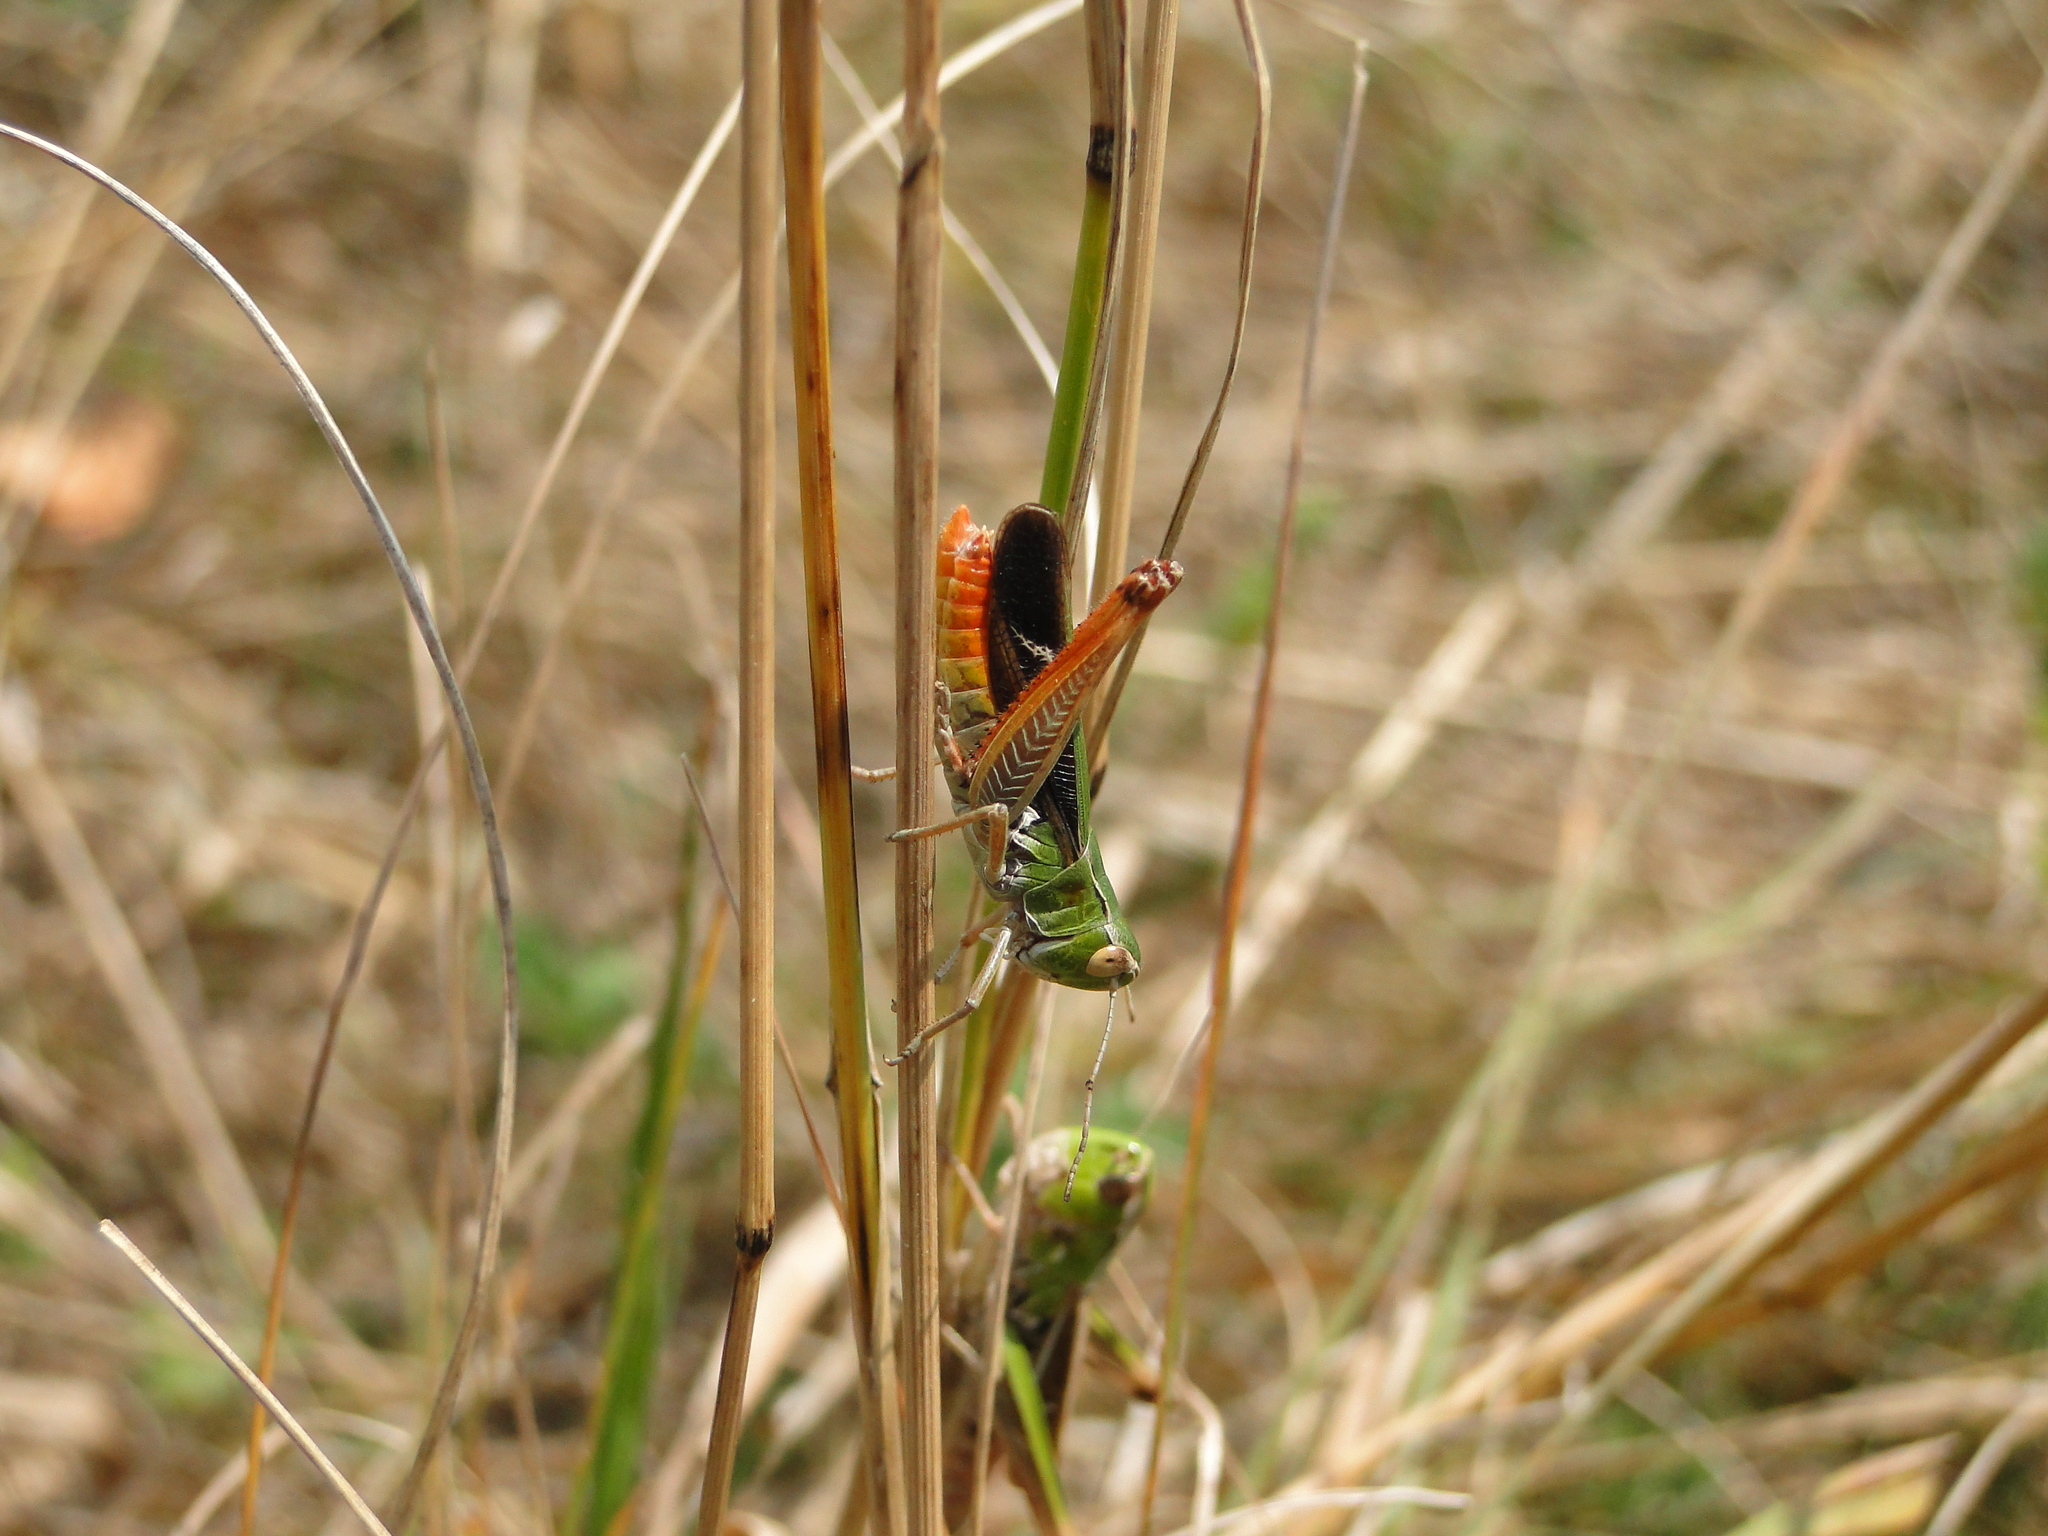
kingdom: Animalia
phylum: Arthropoda
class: Insecta
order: Orthoptera
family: Acrididae
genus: Stenobothrus
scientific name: Stenobothrus lineatus
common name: Stripe-winged grasshopper
